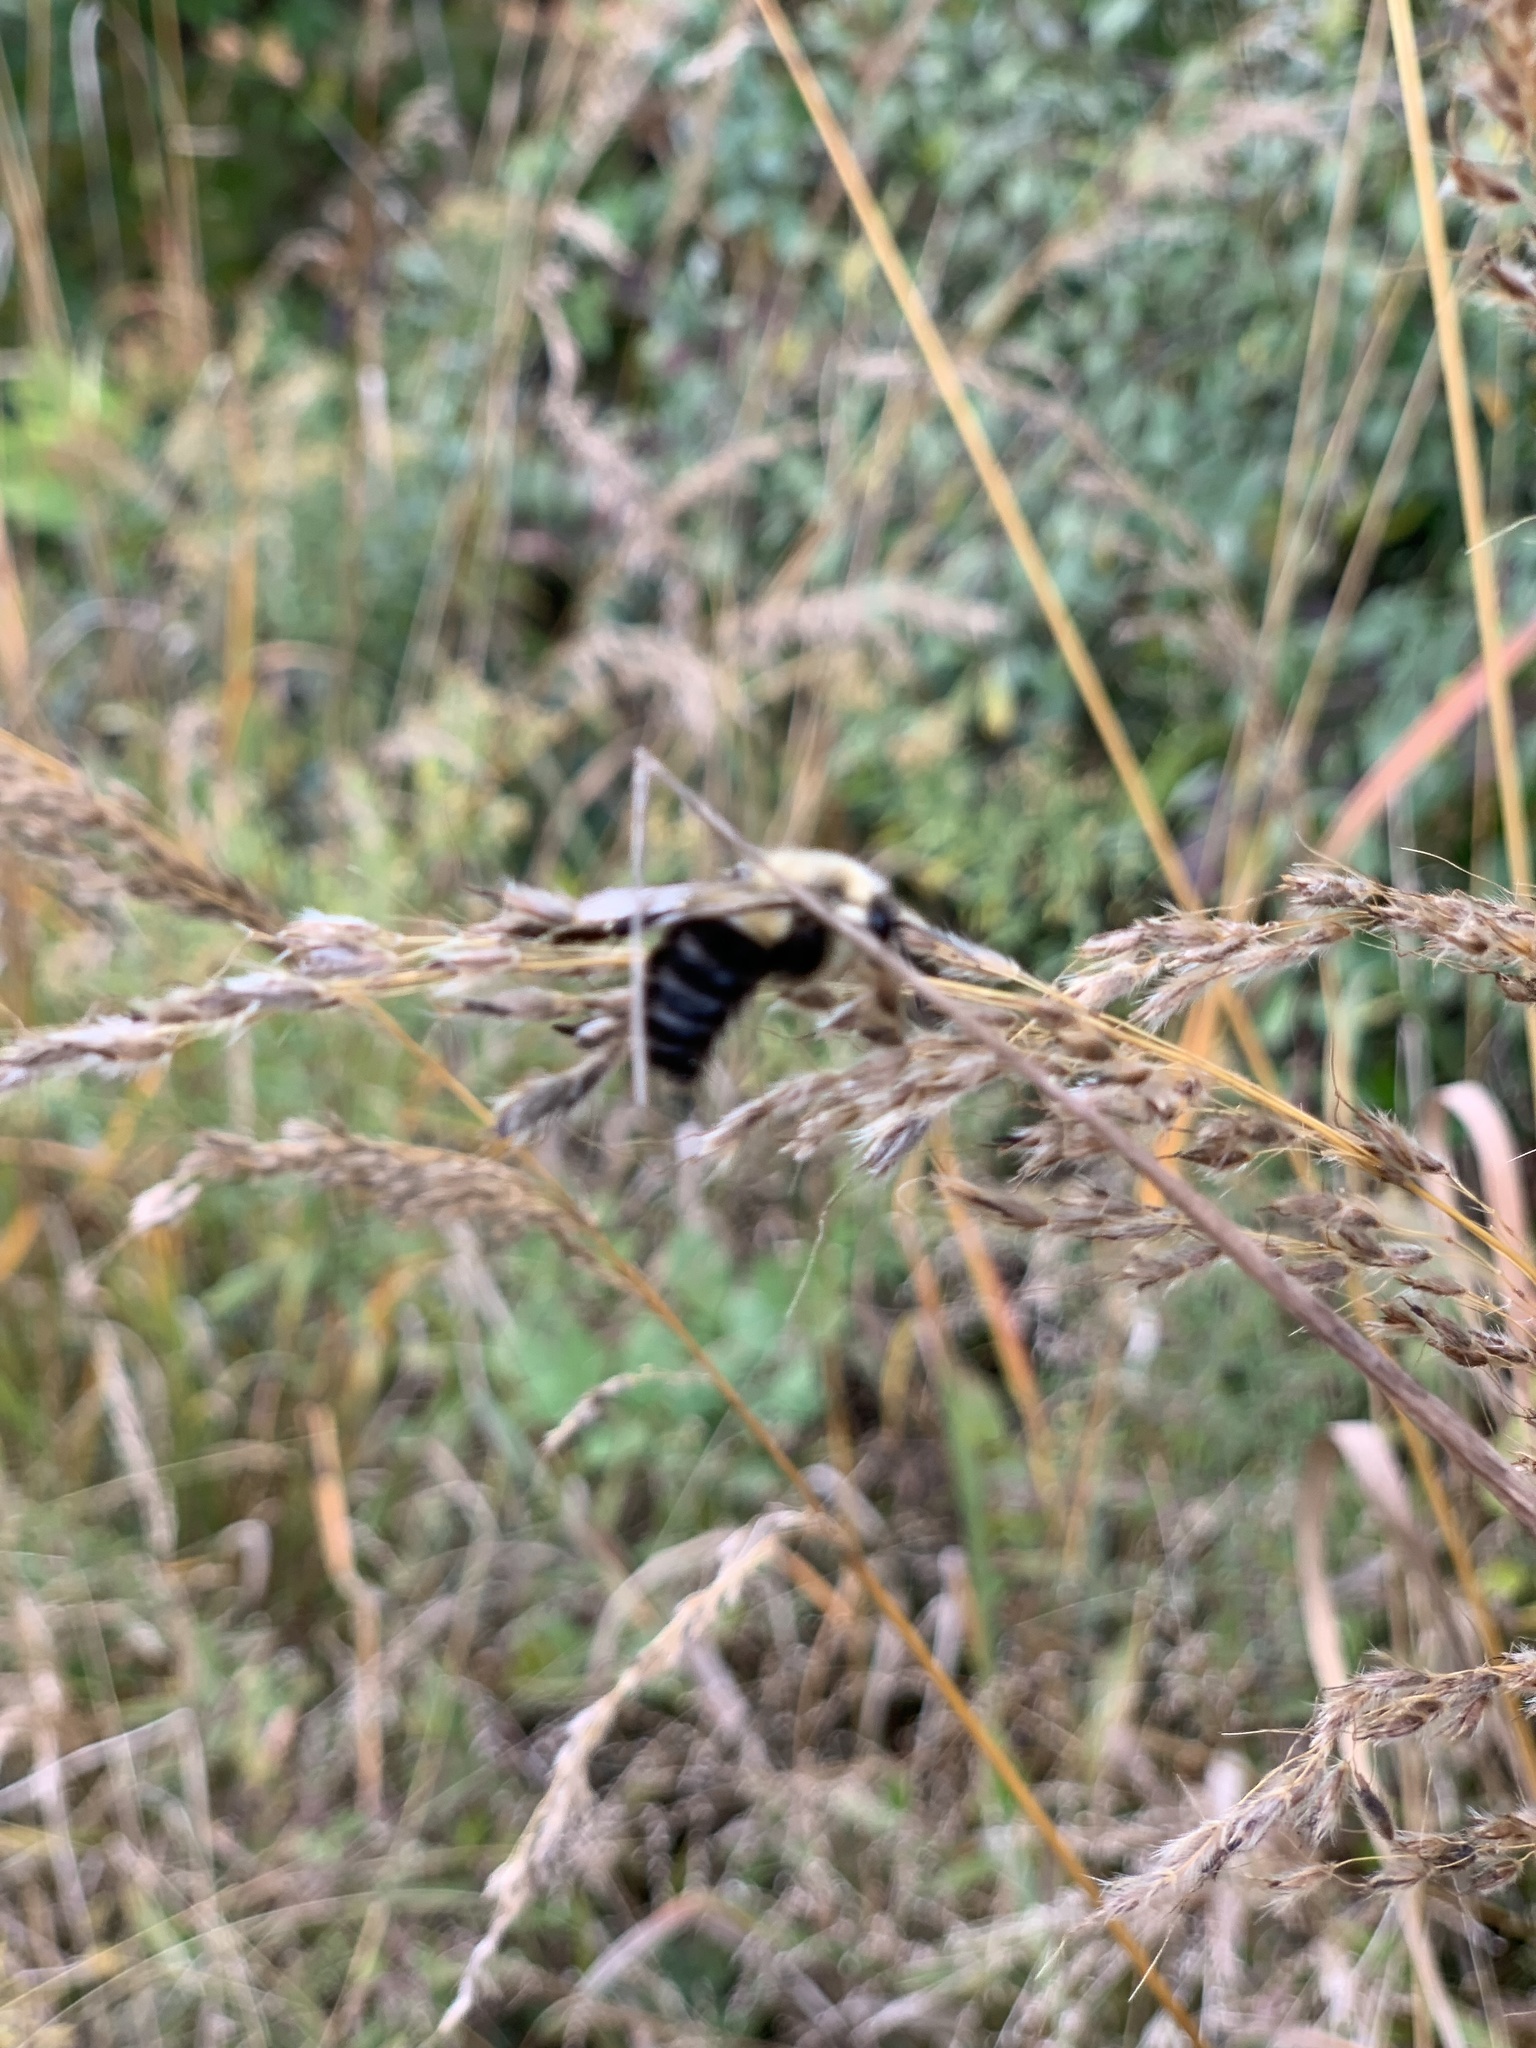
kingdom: Animalia
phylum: Arthropoda
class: Insecta
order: Hymenoptera
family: Apidae
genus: Bombus
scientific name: Bombus impatiens
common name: Common eastern bumble bee
